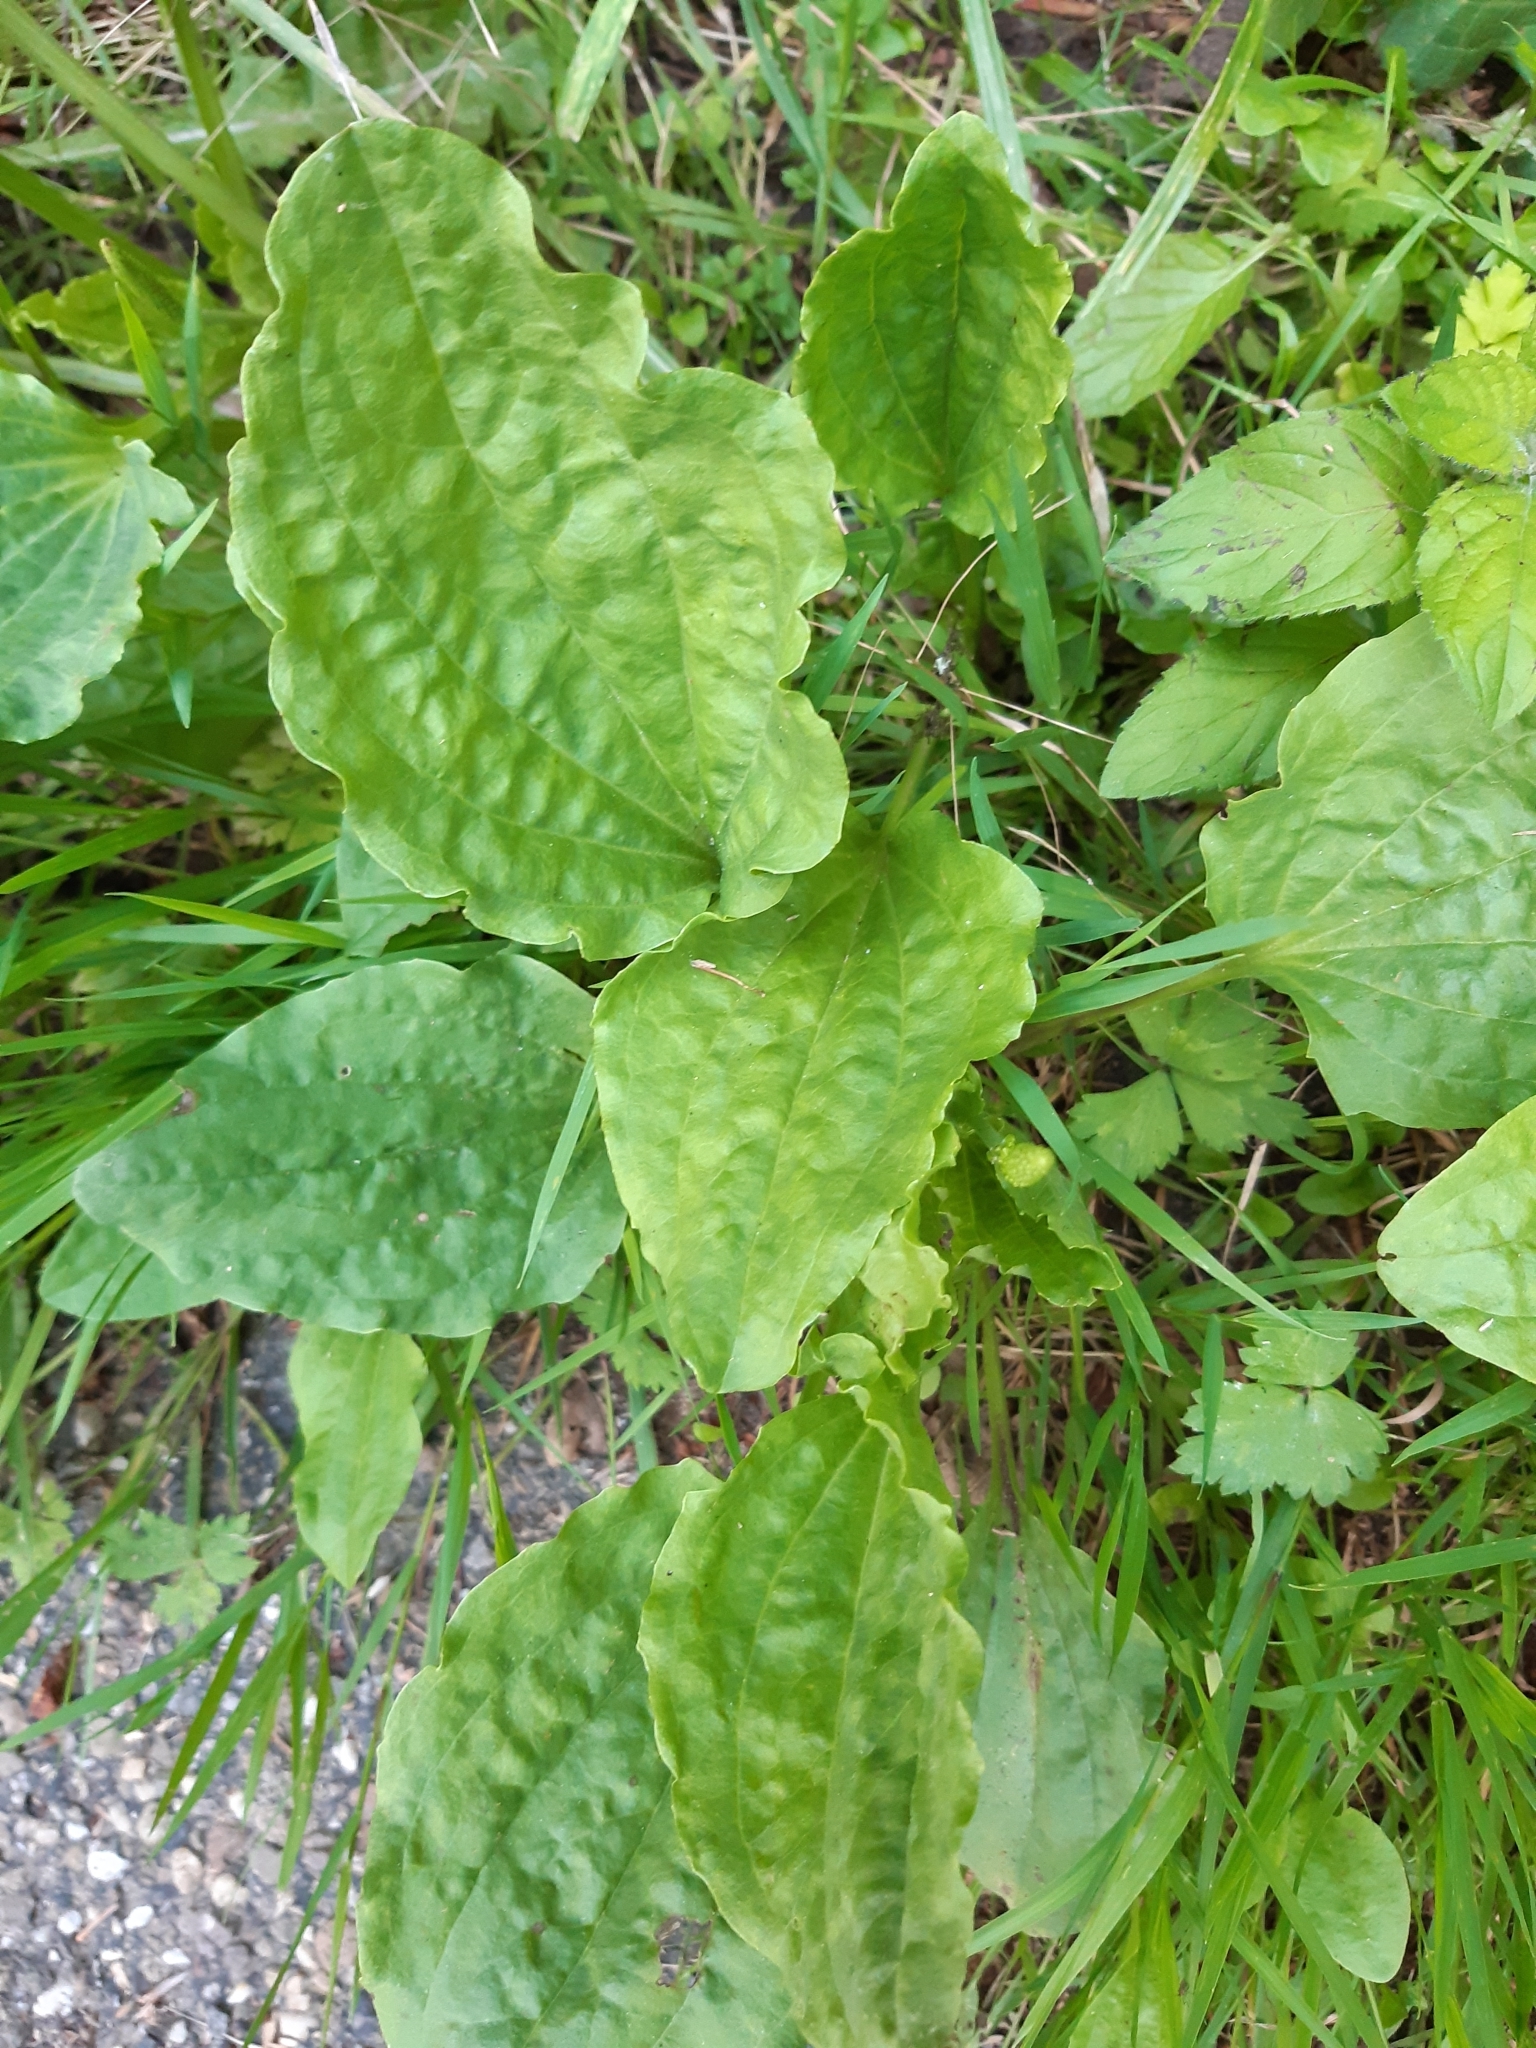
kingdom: Plantae
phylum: Tracheophyta
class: Magnoliopsida
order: Lamiales
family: Plantaginaceae
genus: Plantago
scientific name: Plantago major
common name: Common plantain
